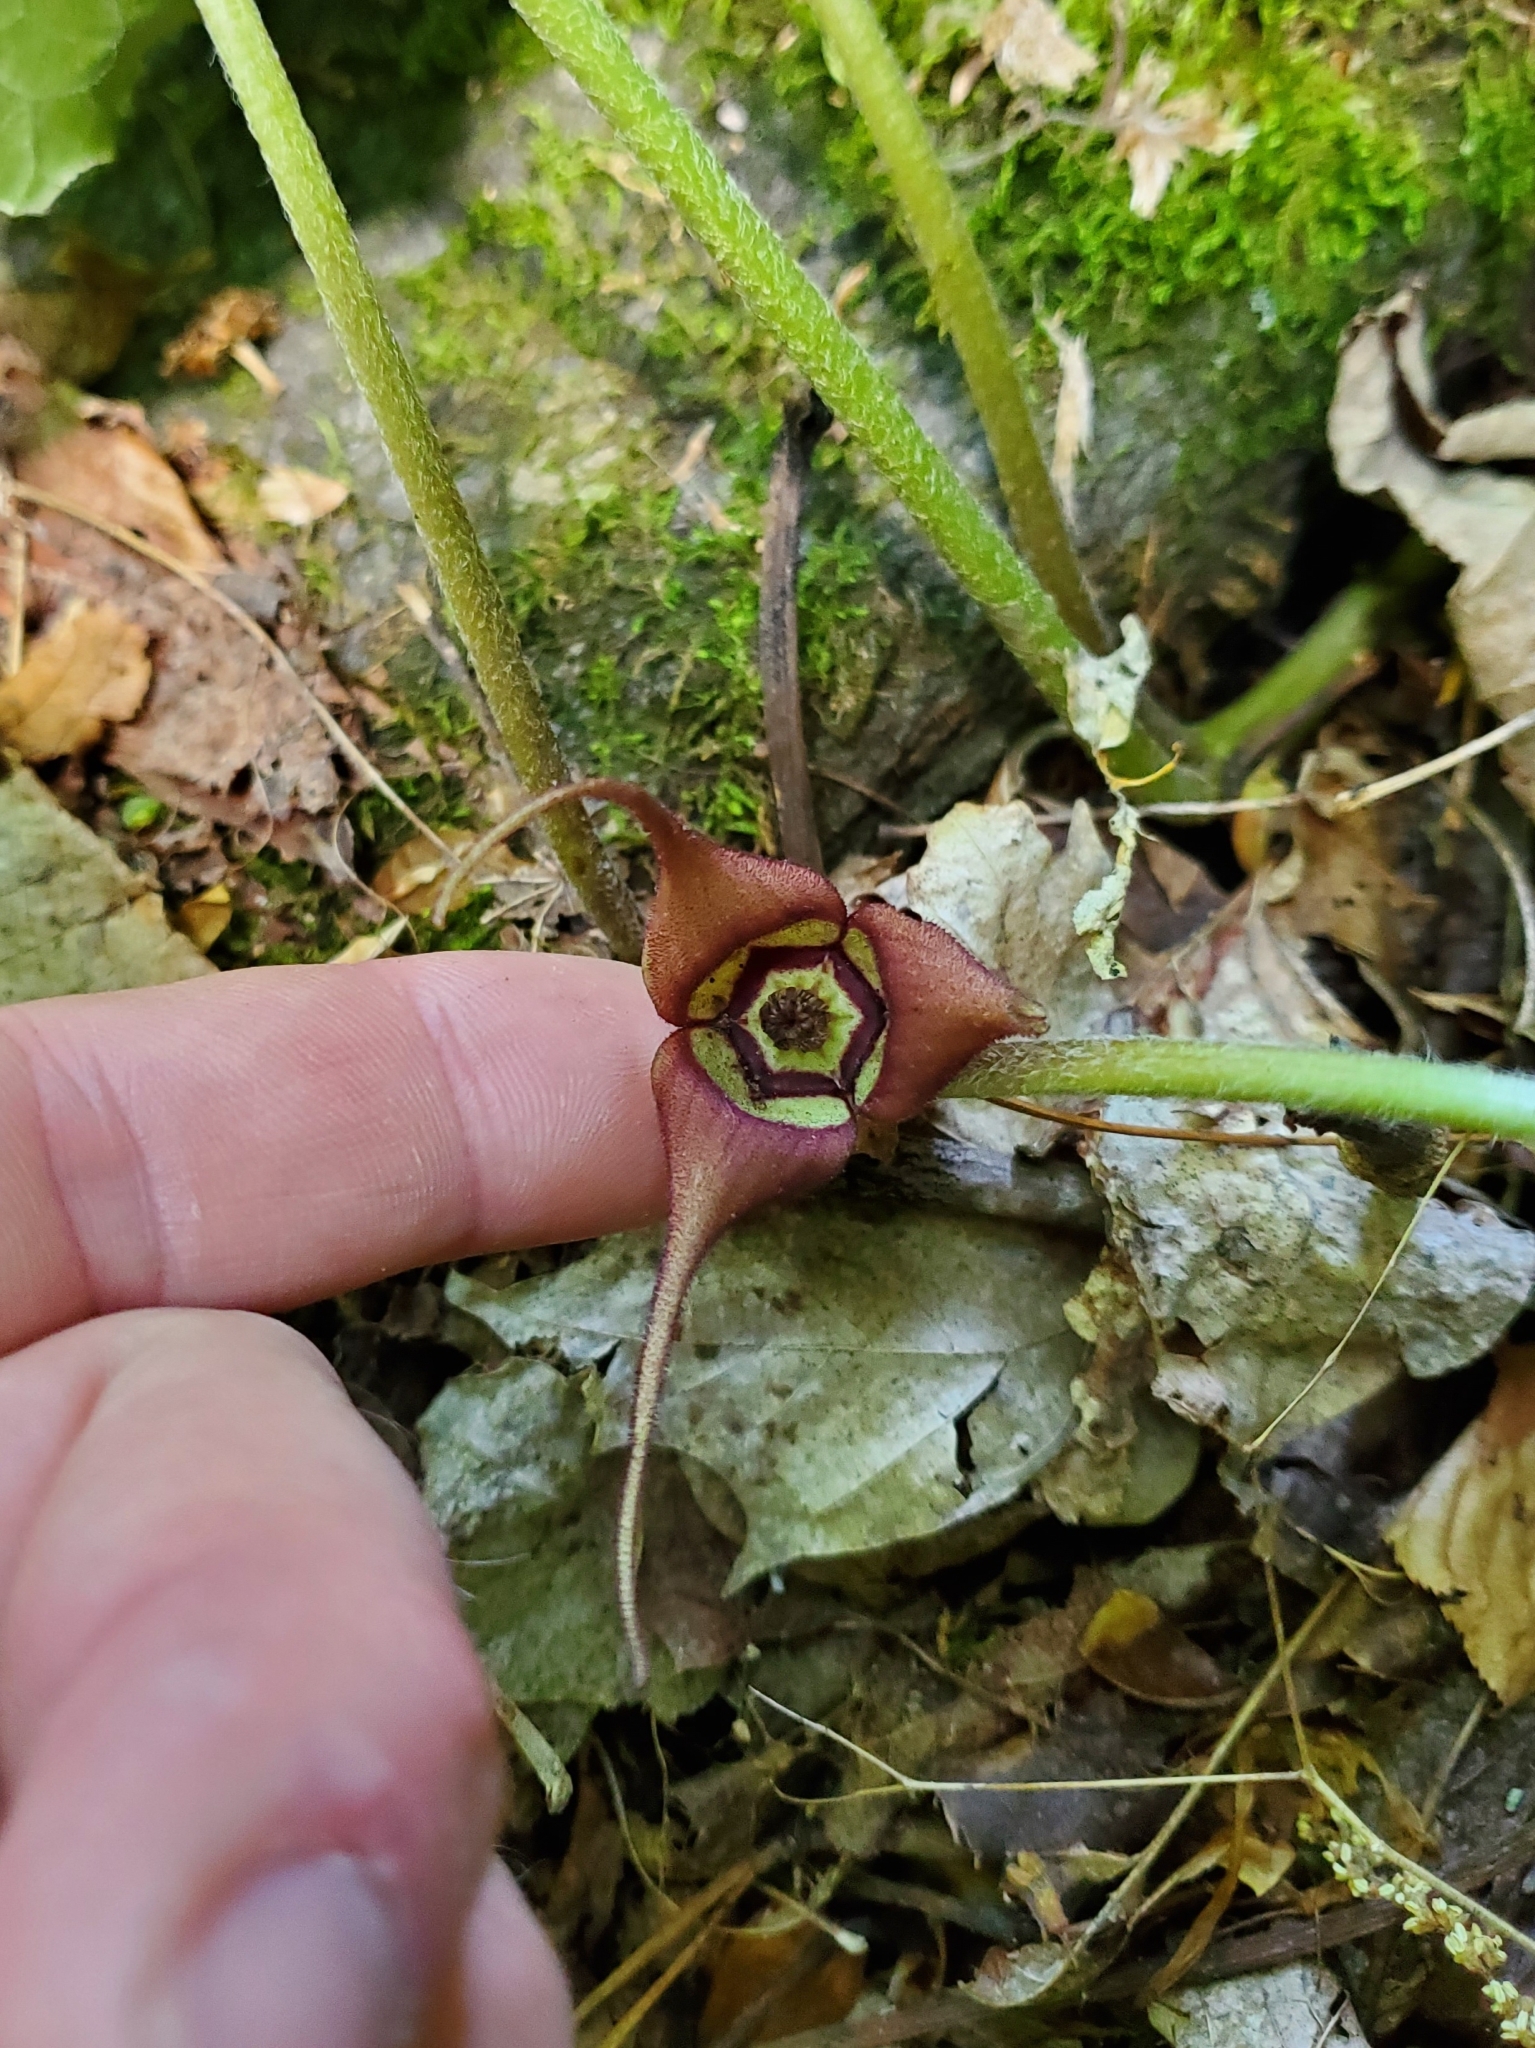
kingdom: Plantae
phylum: Tracheophyta
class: Magnoliopsida
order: Piperales
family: Aristolochiaceae
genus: Asarum
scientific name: Asarum canadense
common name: Wild ginger
